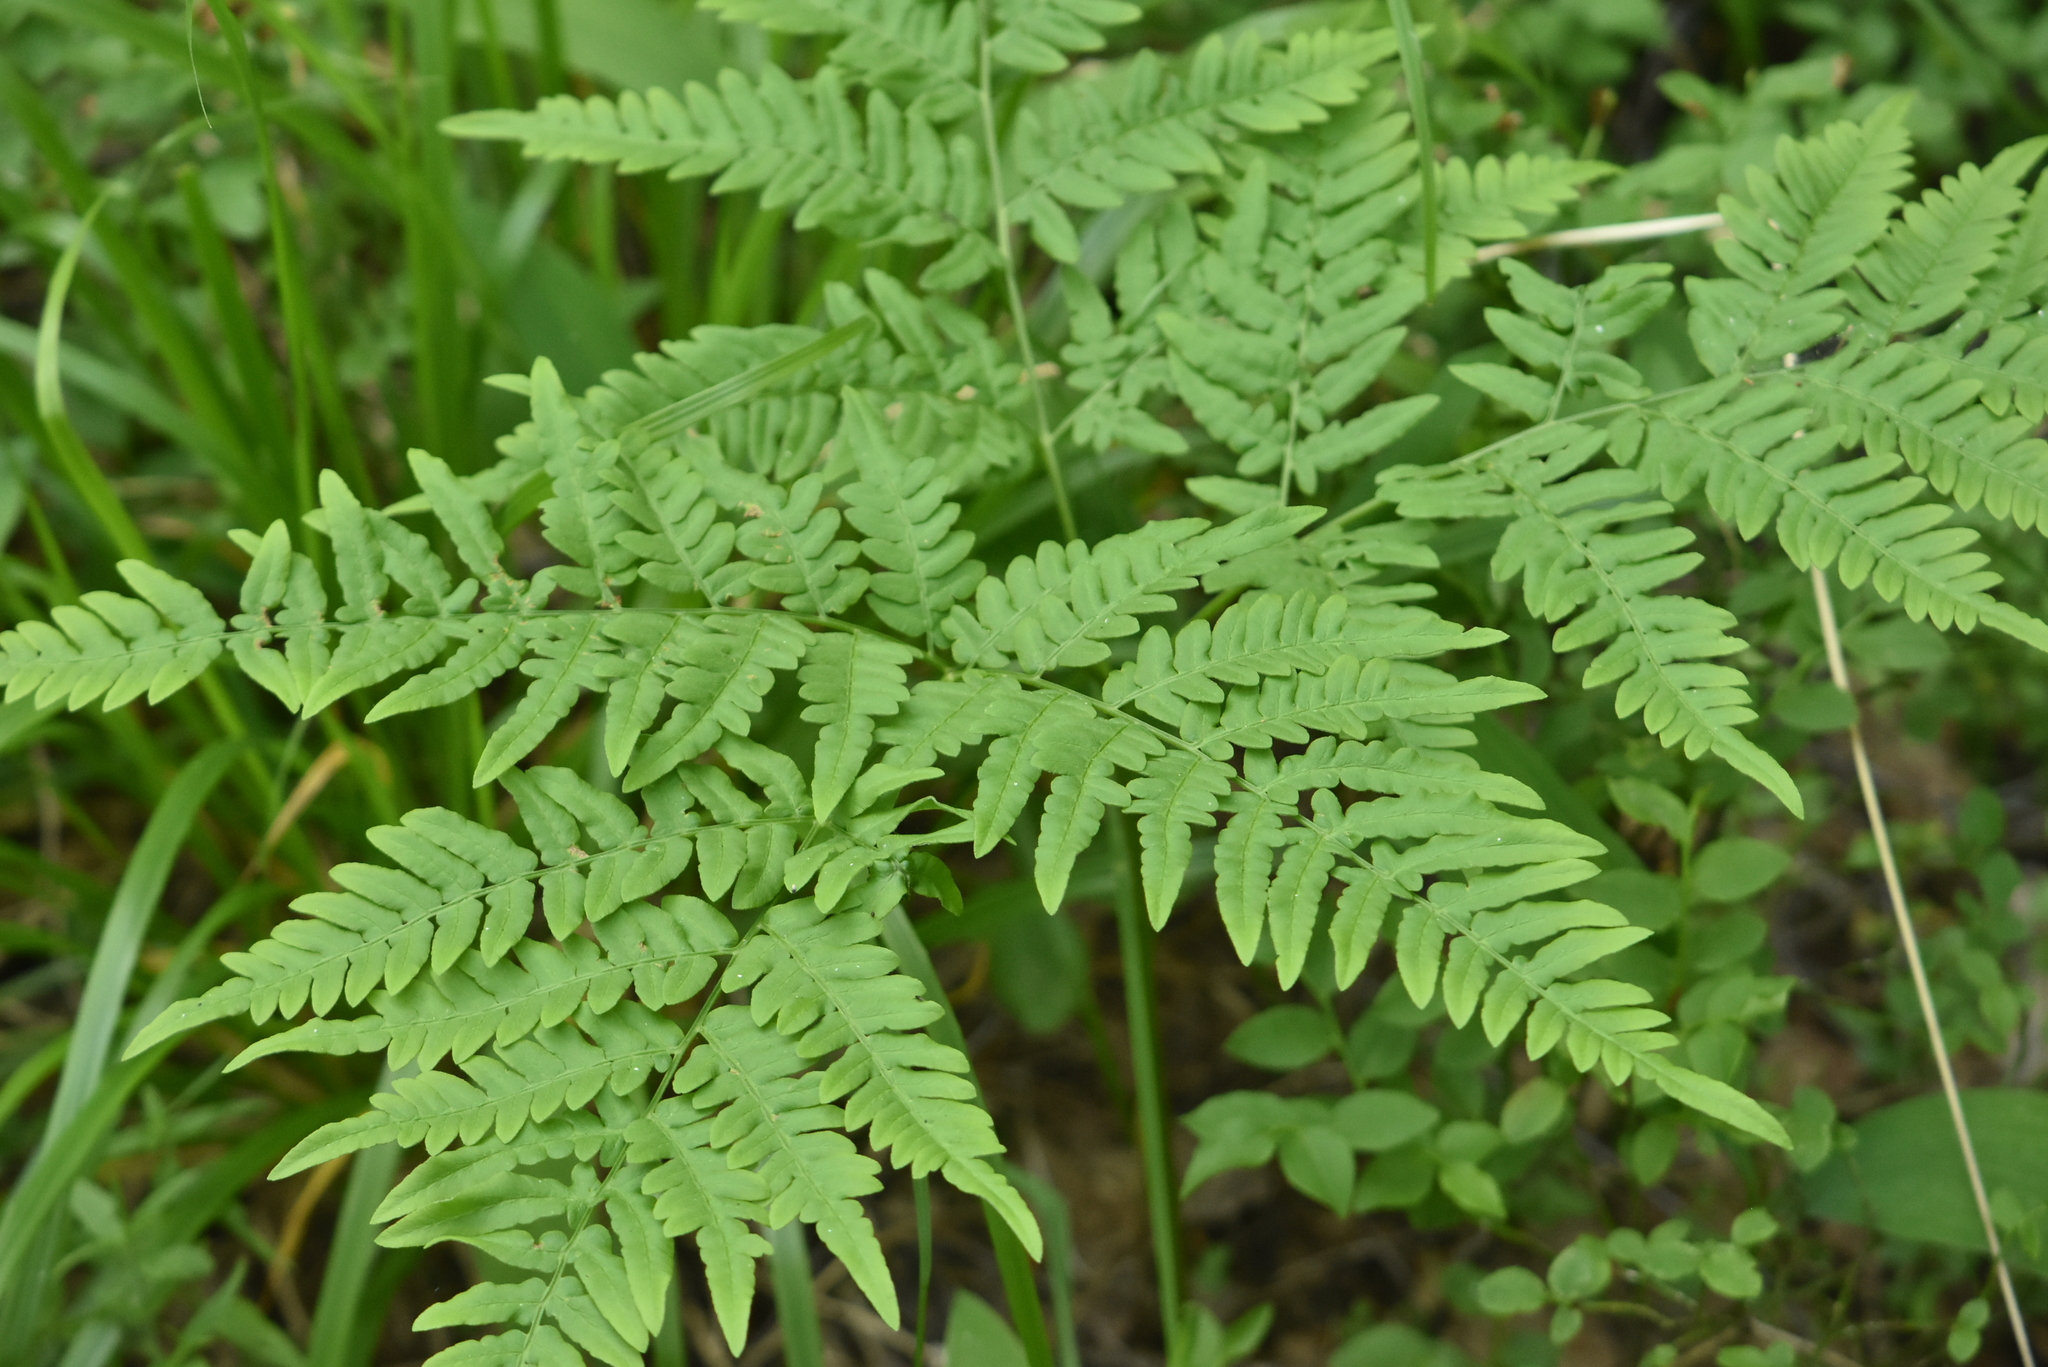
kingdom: Plantae
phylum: Tracheophyta
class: Polypodiopsida
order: Polypodiales
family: Dennstaedtiaceae
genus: Pteridium
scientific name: Pteridium aquilinum
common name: Bracken
